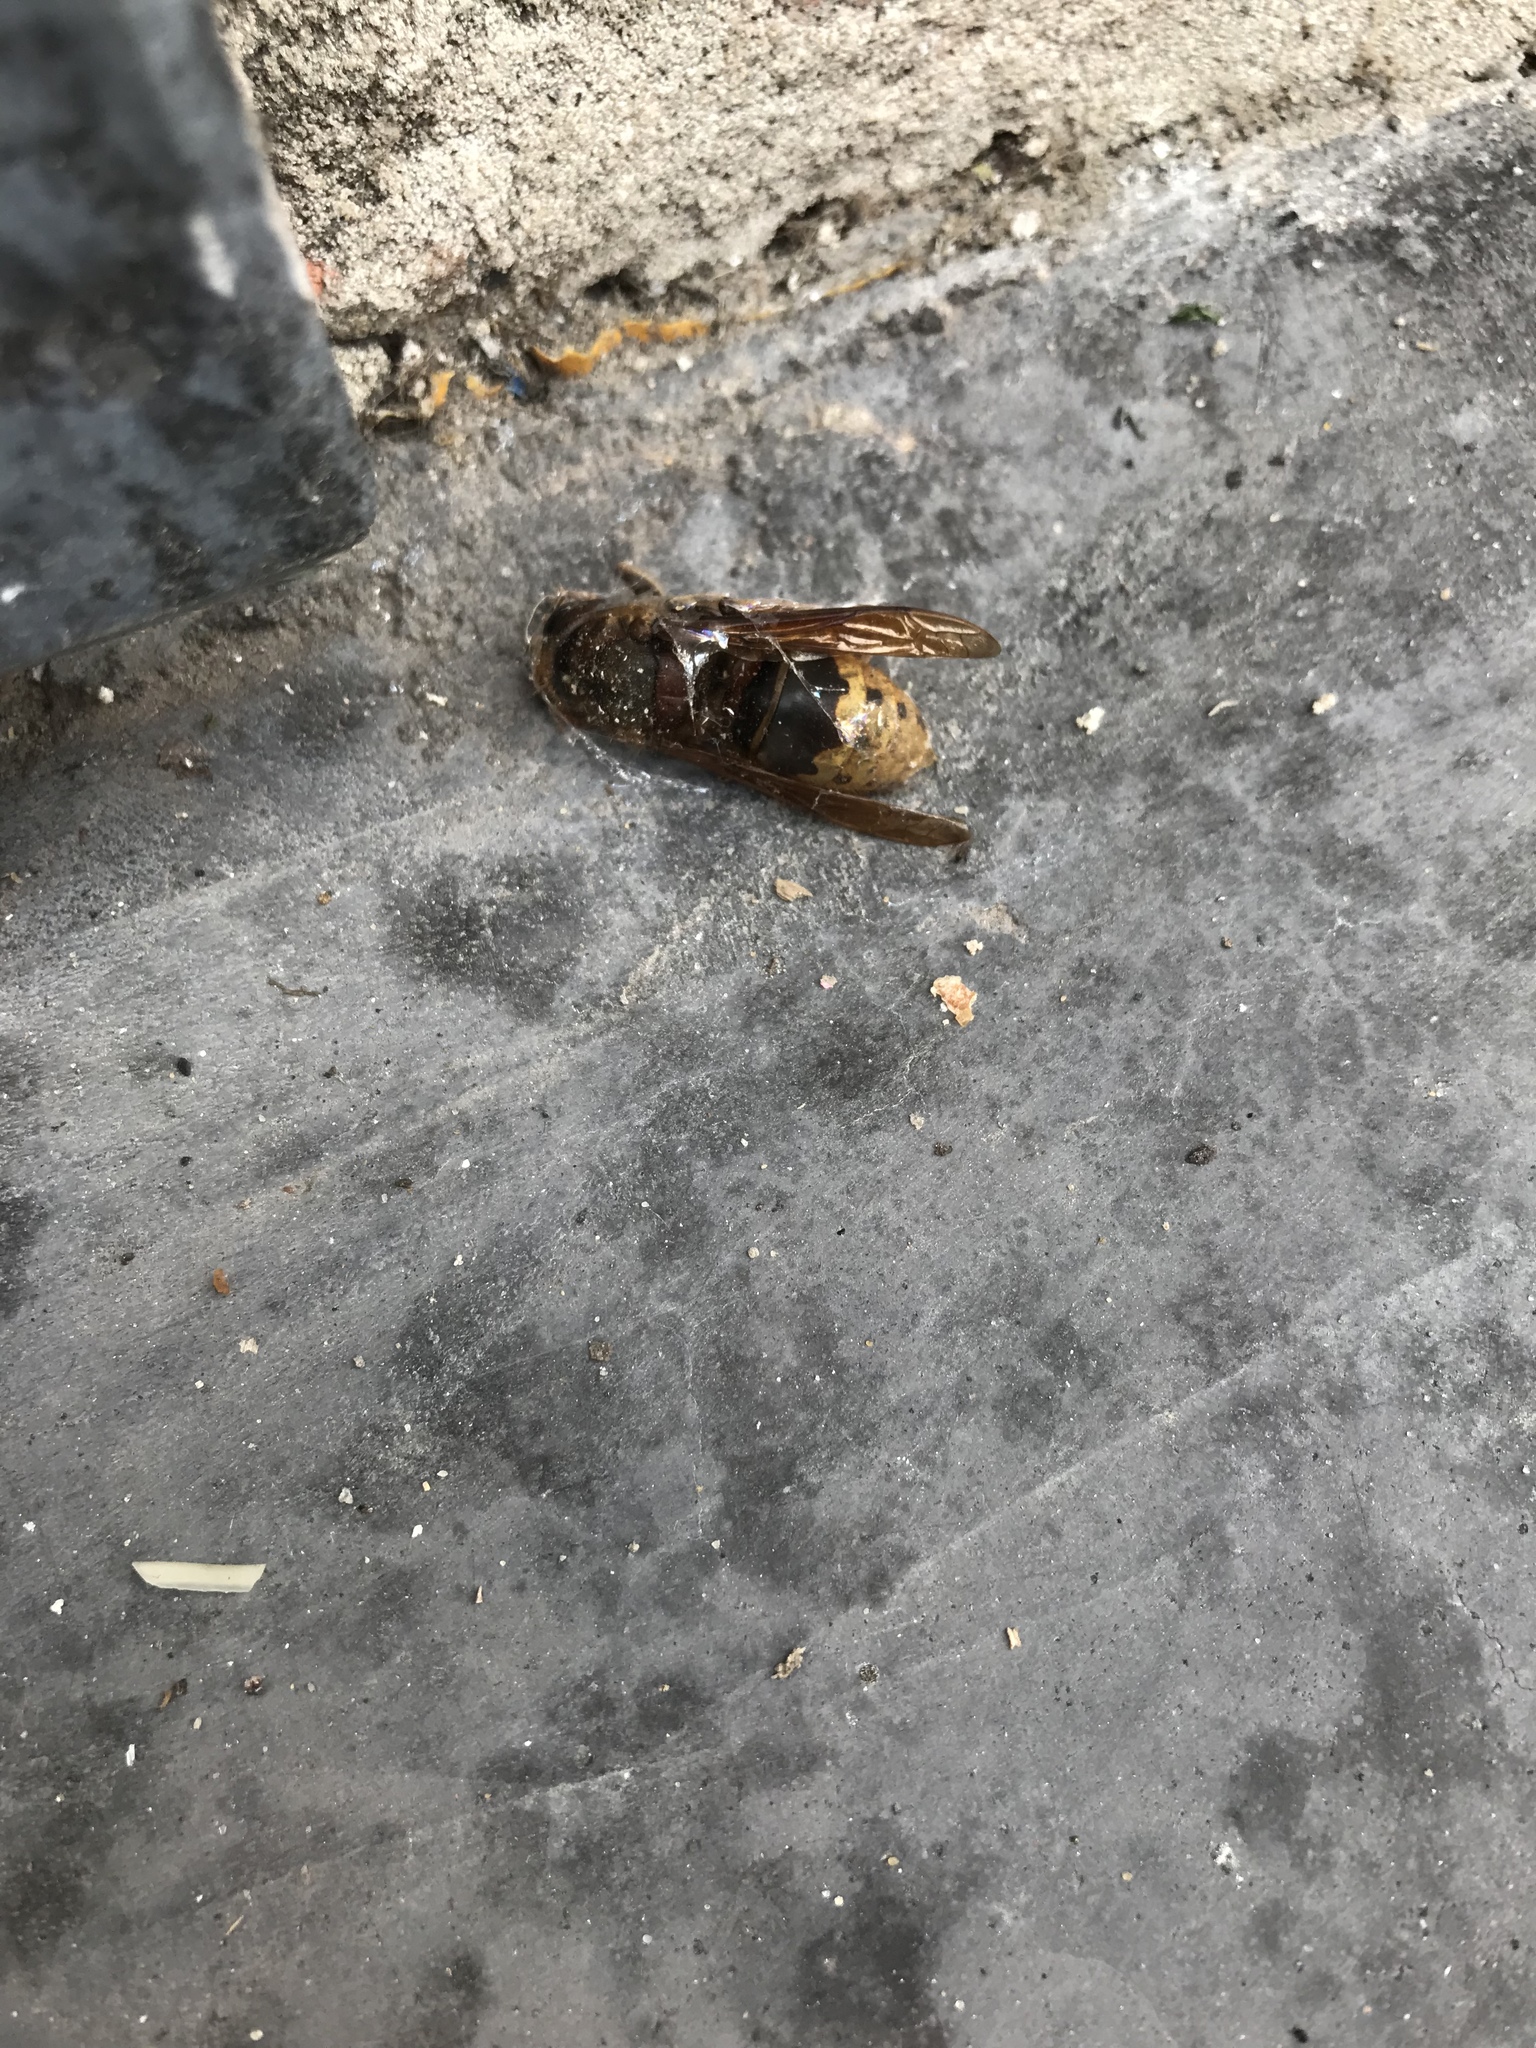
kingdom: Animalia
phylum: Arthropoda
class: Insecta
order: Hymenoptera
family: Vespidae
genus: Vespa
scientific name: Vespa crabro
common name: Hornet
